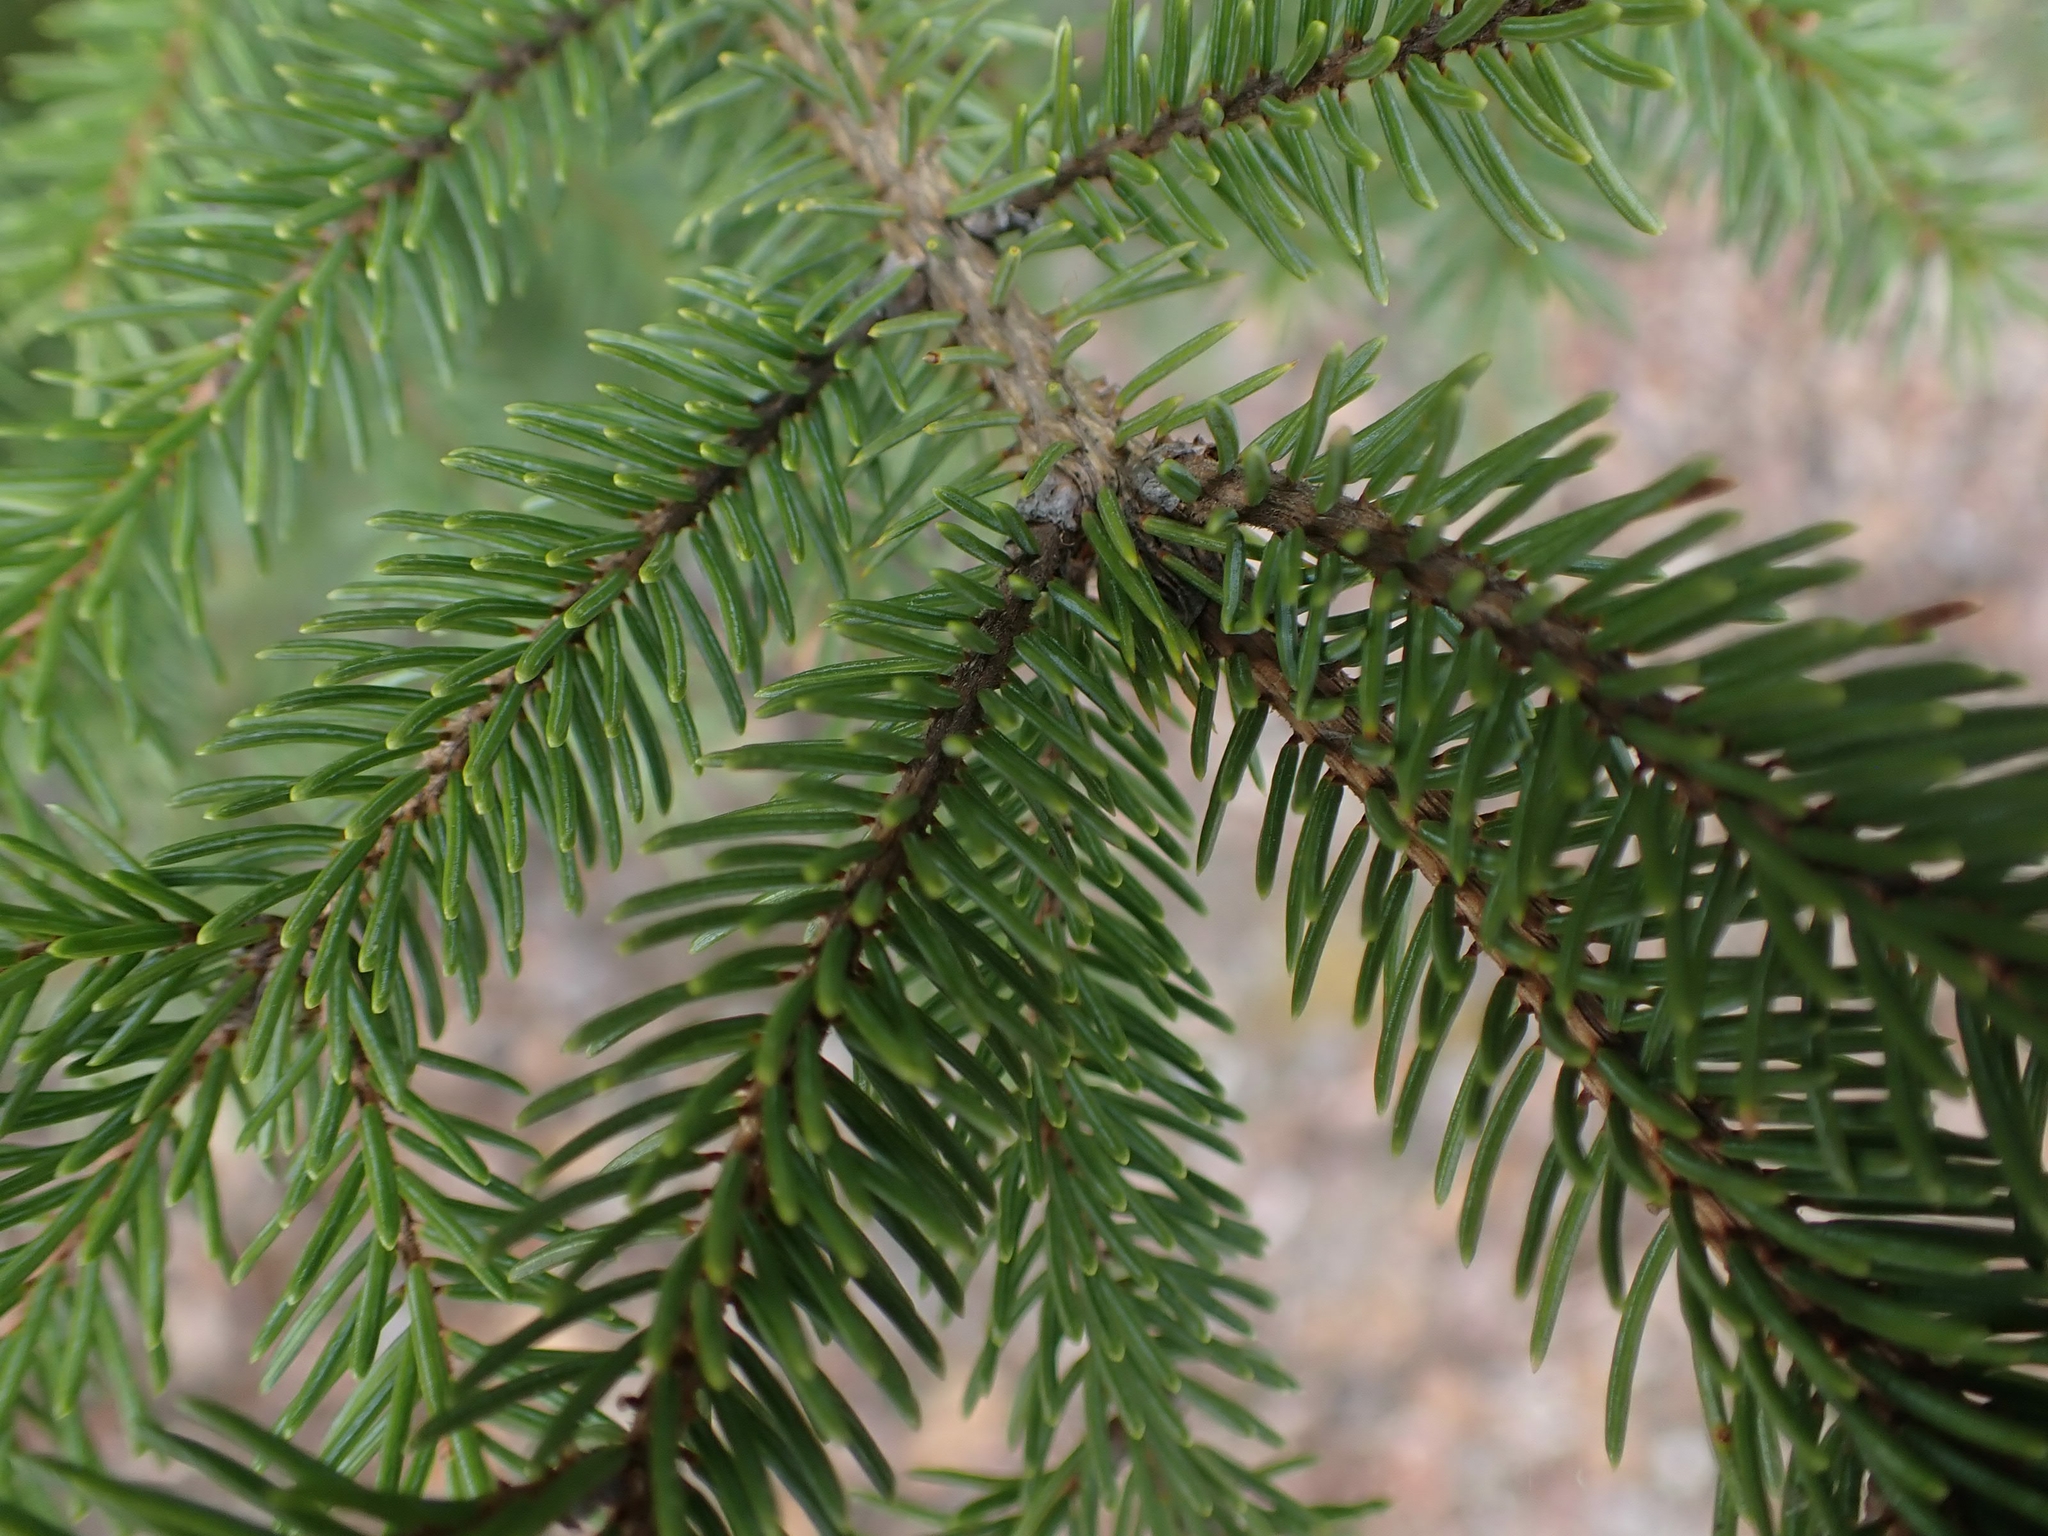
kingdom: Plantae
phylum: Tracheophyta
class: Pinopsida
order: Pinales
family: Pinaceae
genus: Picea
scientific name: Picea glauca
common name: White spruce
